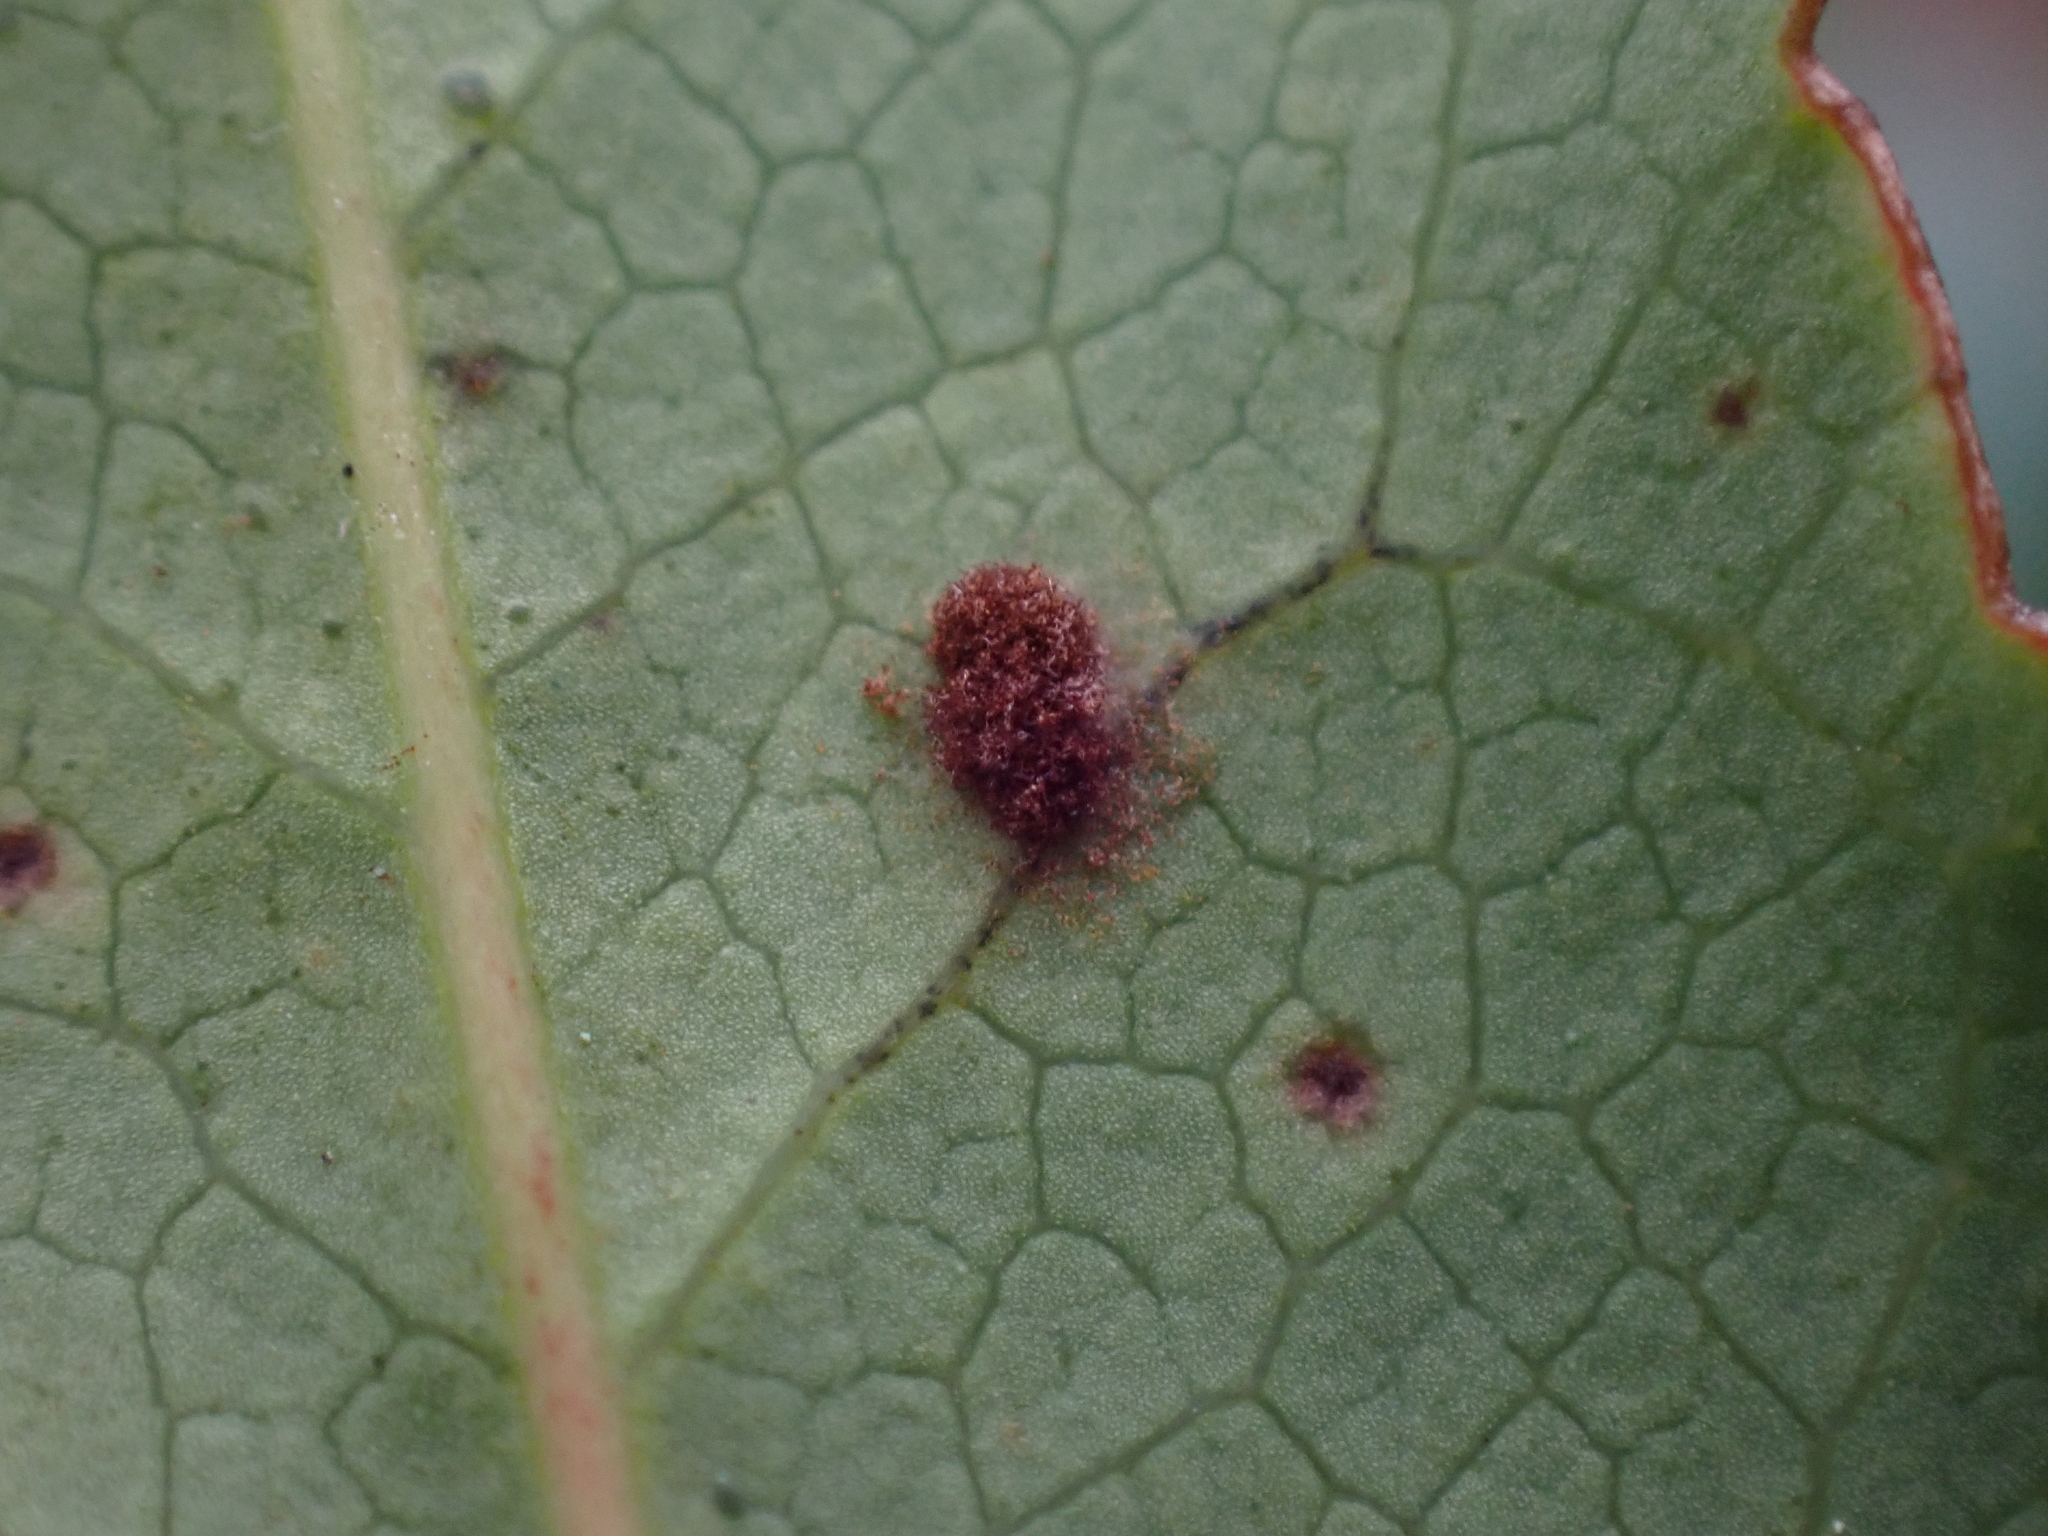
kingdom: Fungi
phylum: Basidiomycota
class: Pucciniomycetes
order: Pucciniales
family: Pucciniaceae
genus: Cumminsiella
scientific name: Cumminsiella mirabilissima
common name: Mahonia rust
